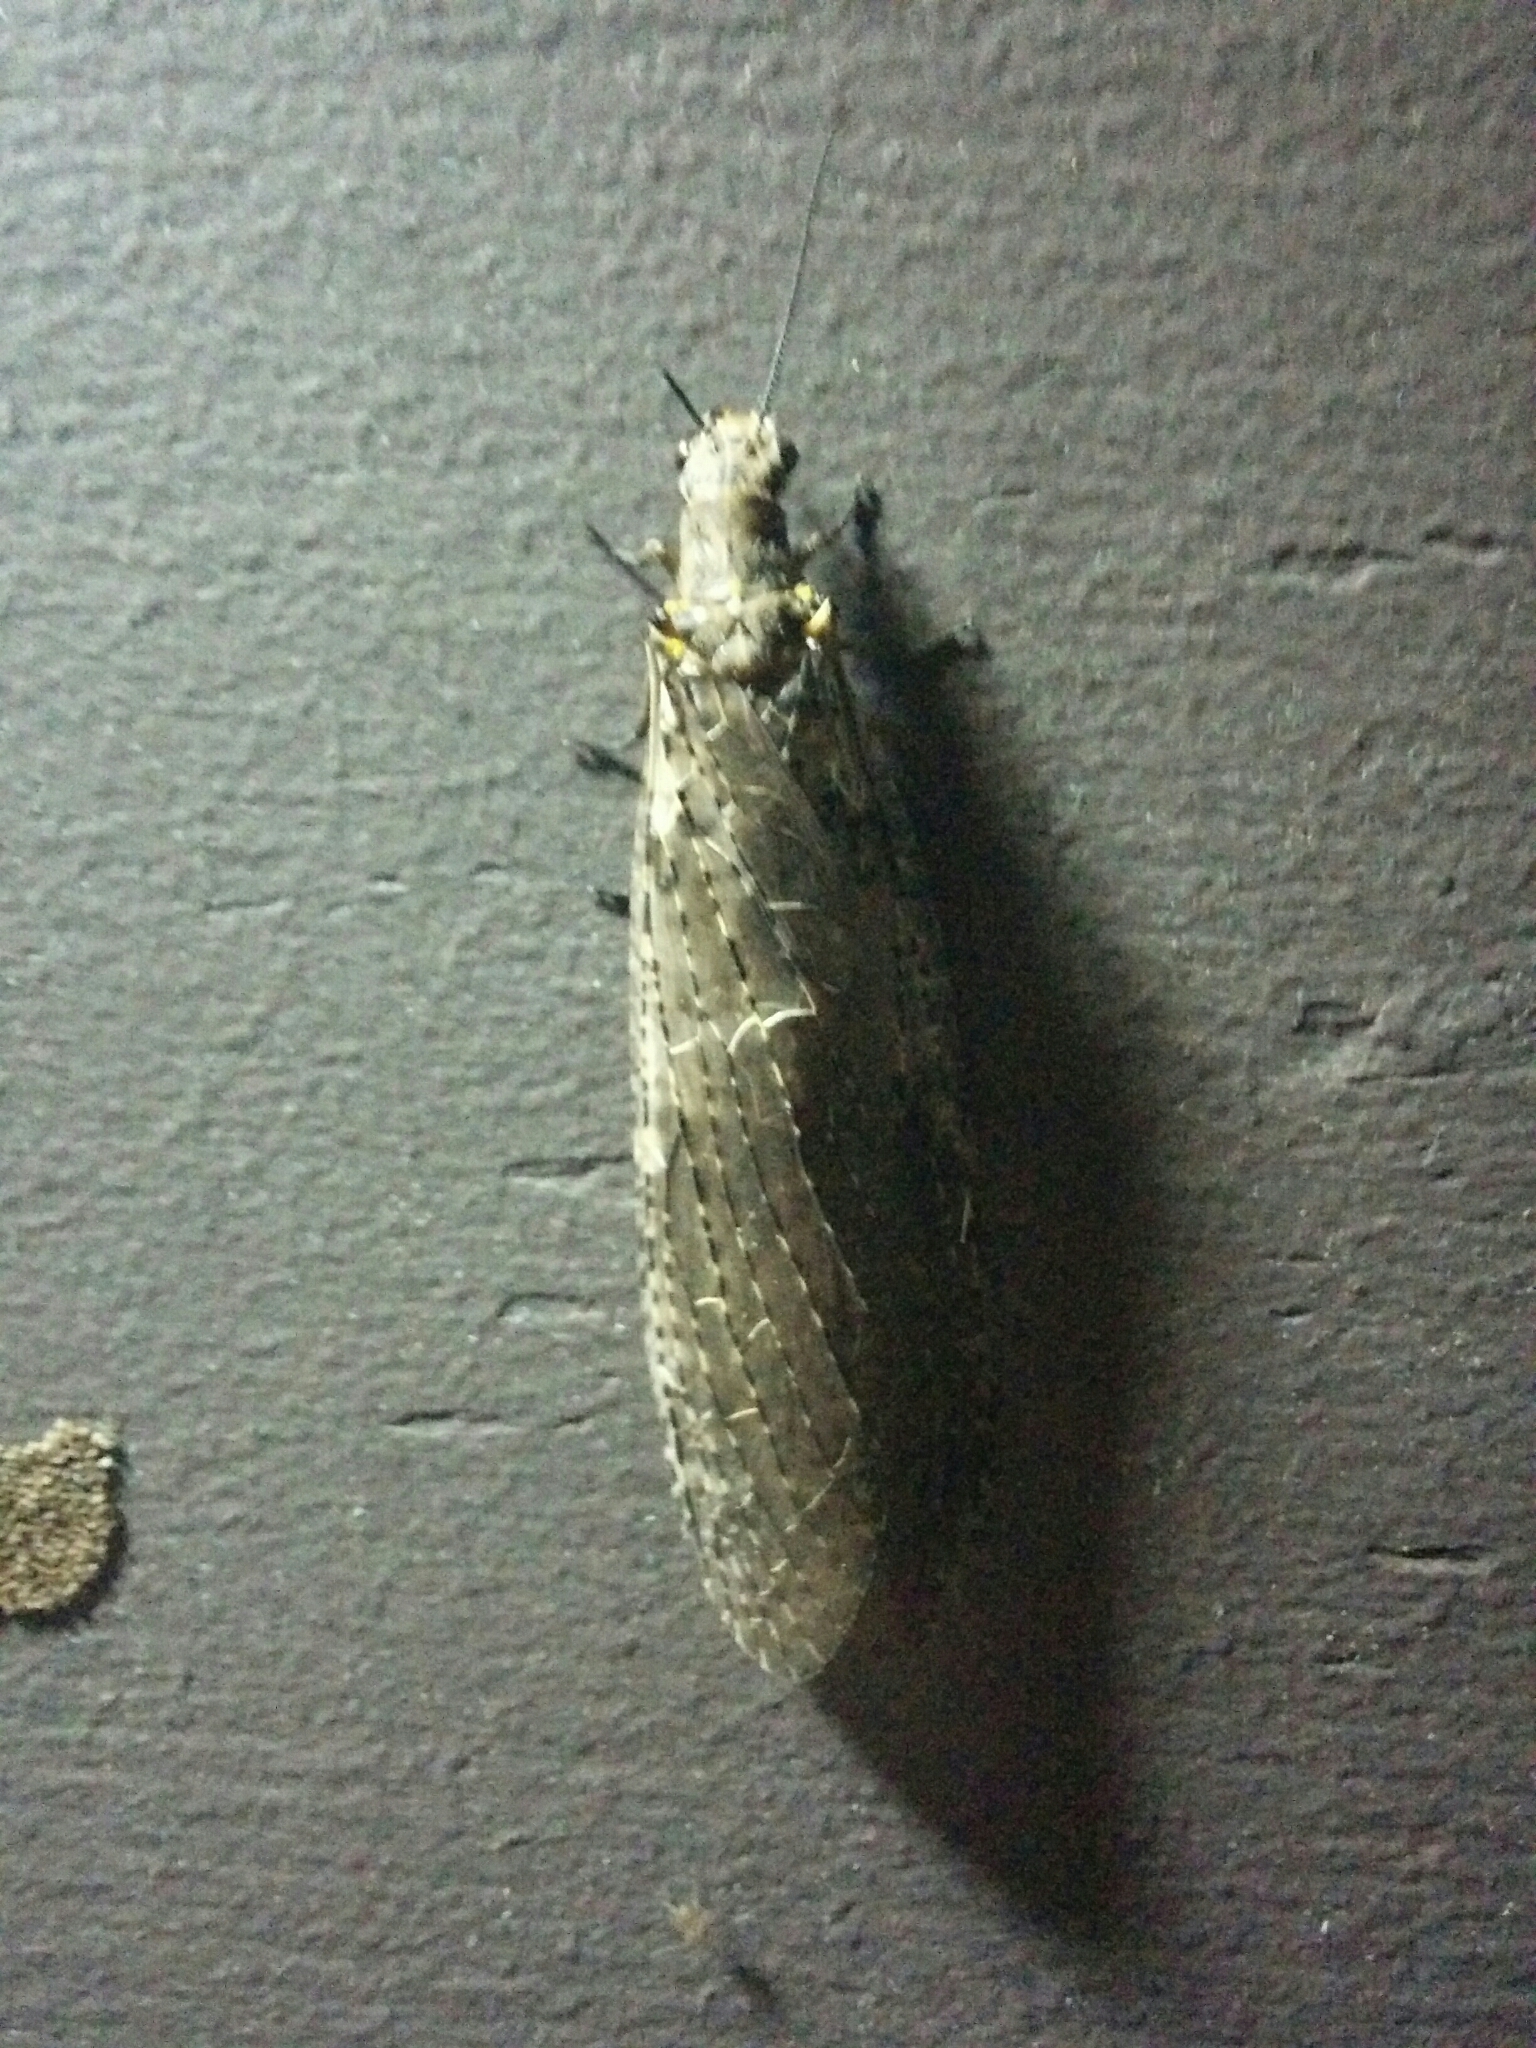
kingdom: Animalia
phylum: Arthropoda
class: Insecta
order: Megaloptera
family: Corydalidae
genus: Chauliodes
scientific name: Chauliodes rastricornis
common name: Spring fishfly
